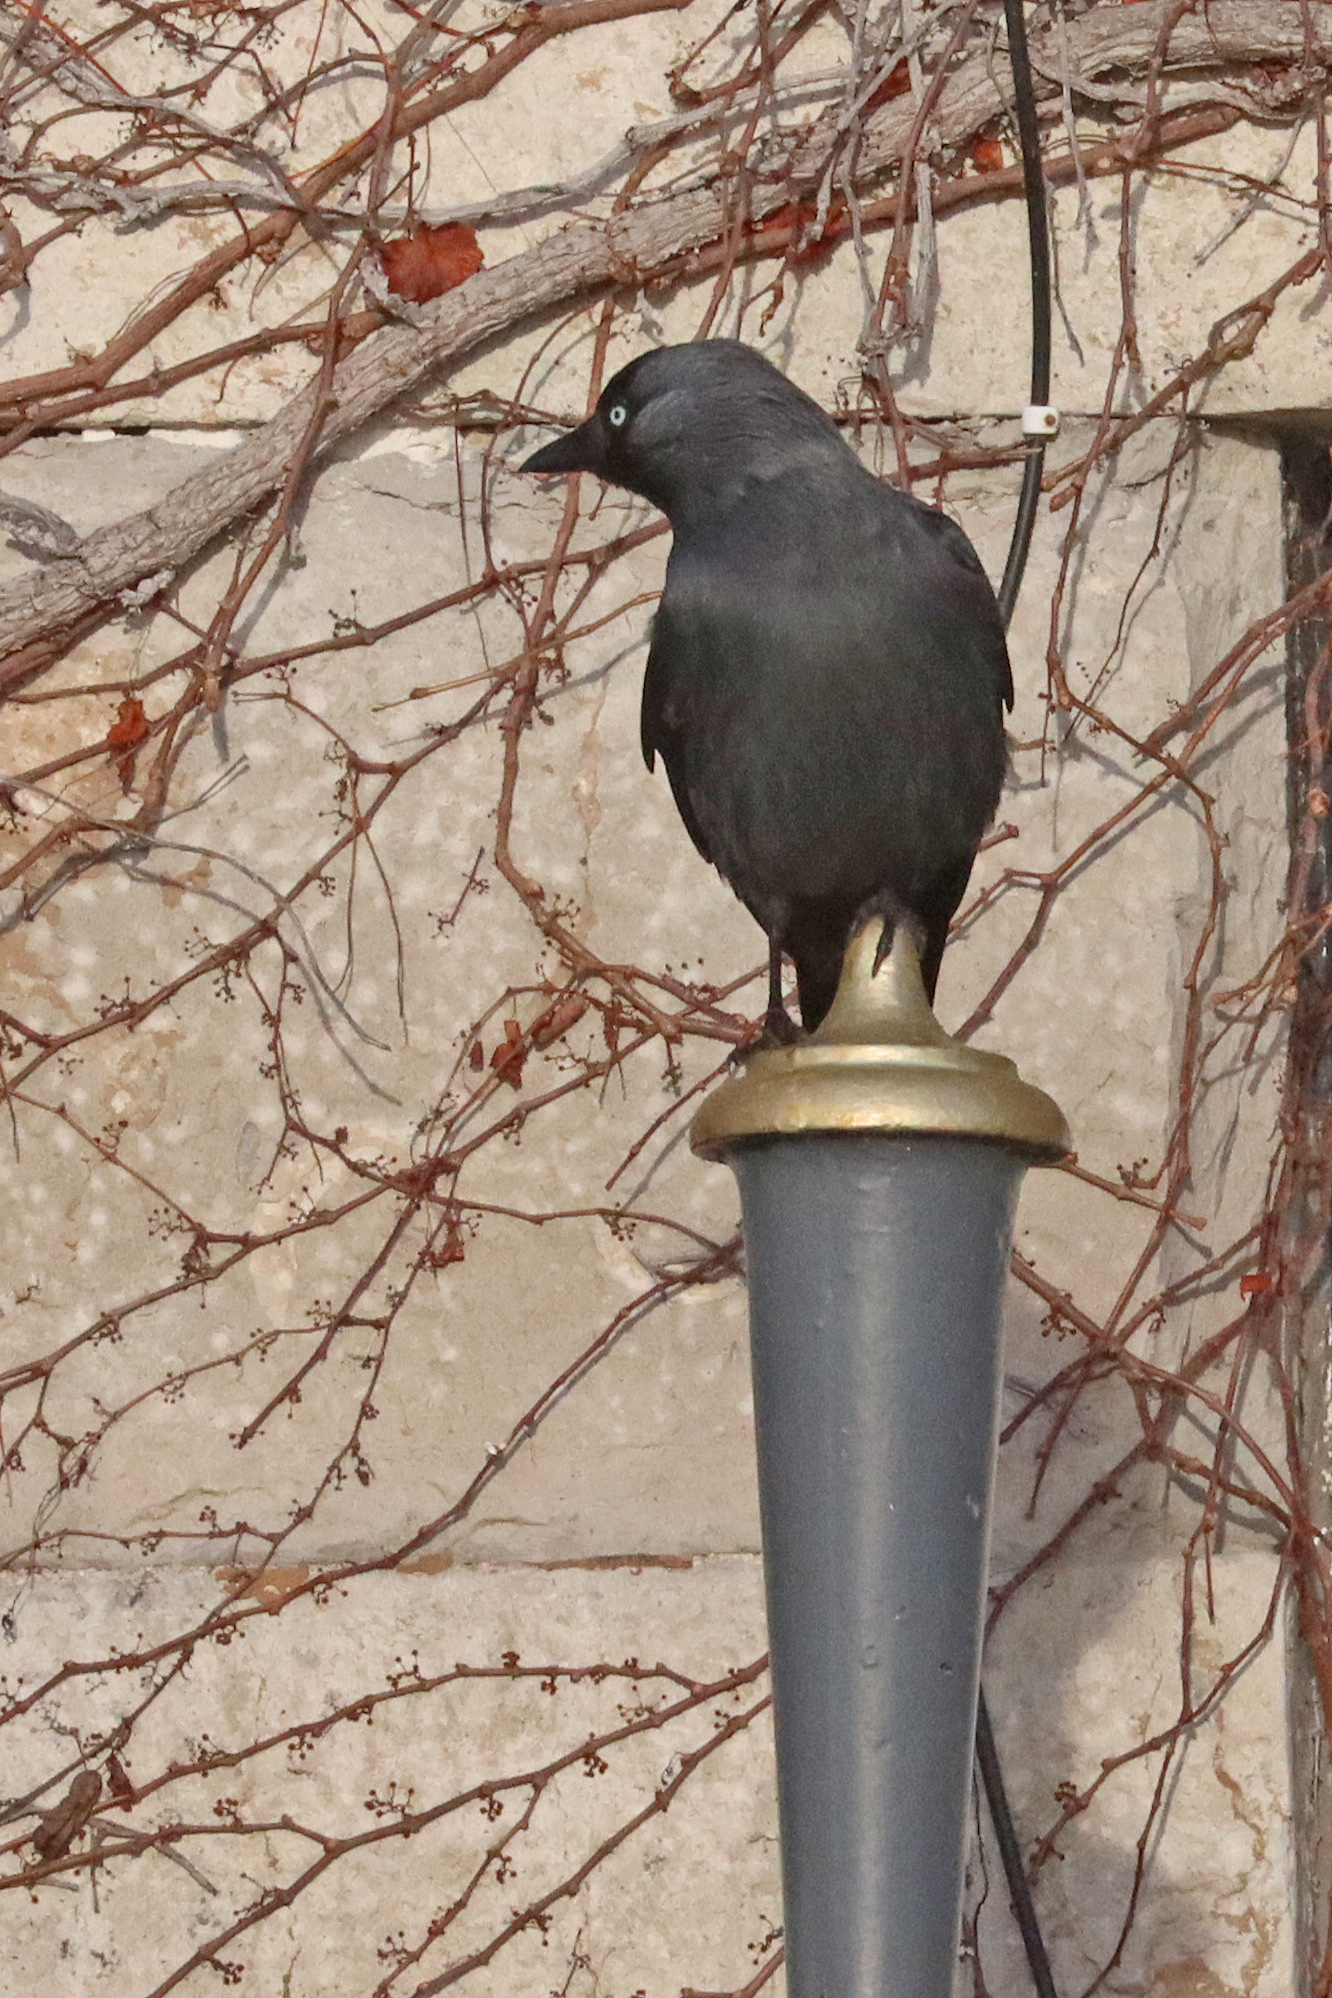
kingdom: Animalia
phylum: Chordata
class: Aves
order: Passeriformes
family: Corvidae
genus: Coloeus
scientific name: Coloeus monedula
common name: Western jackdaw
